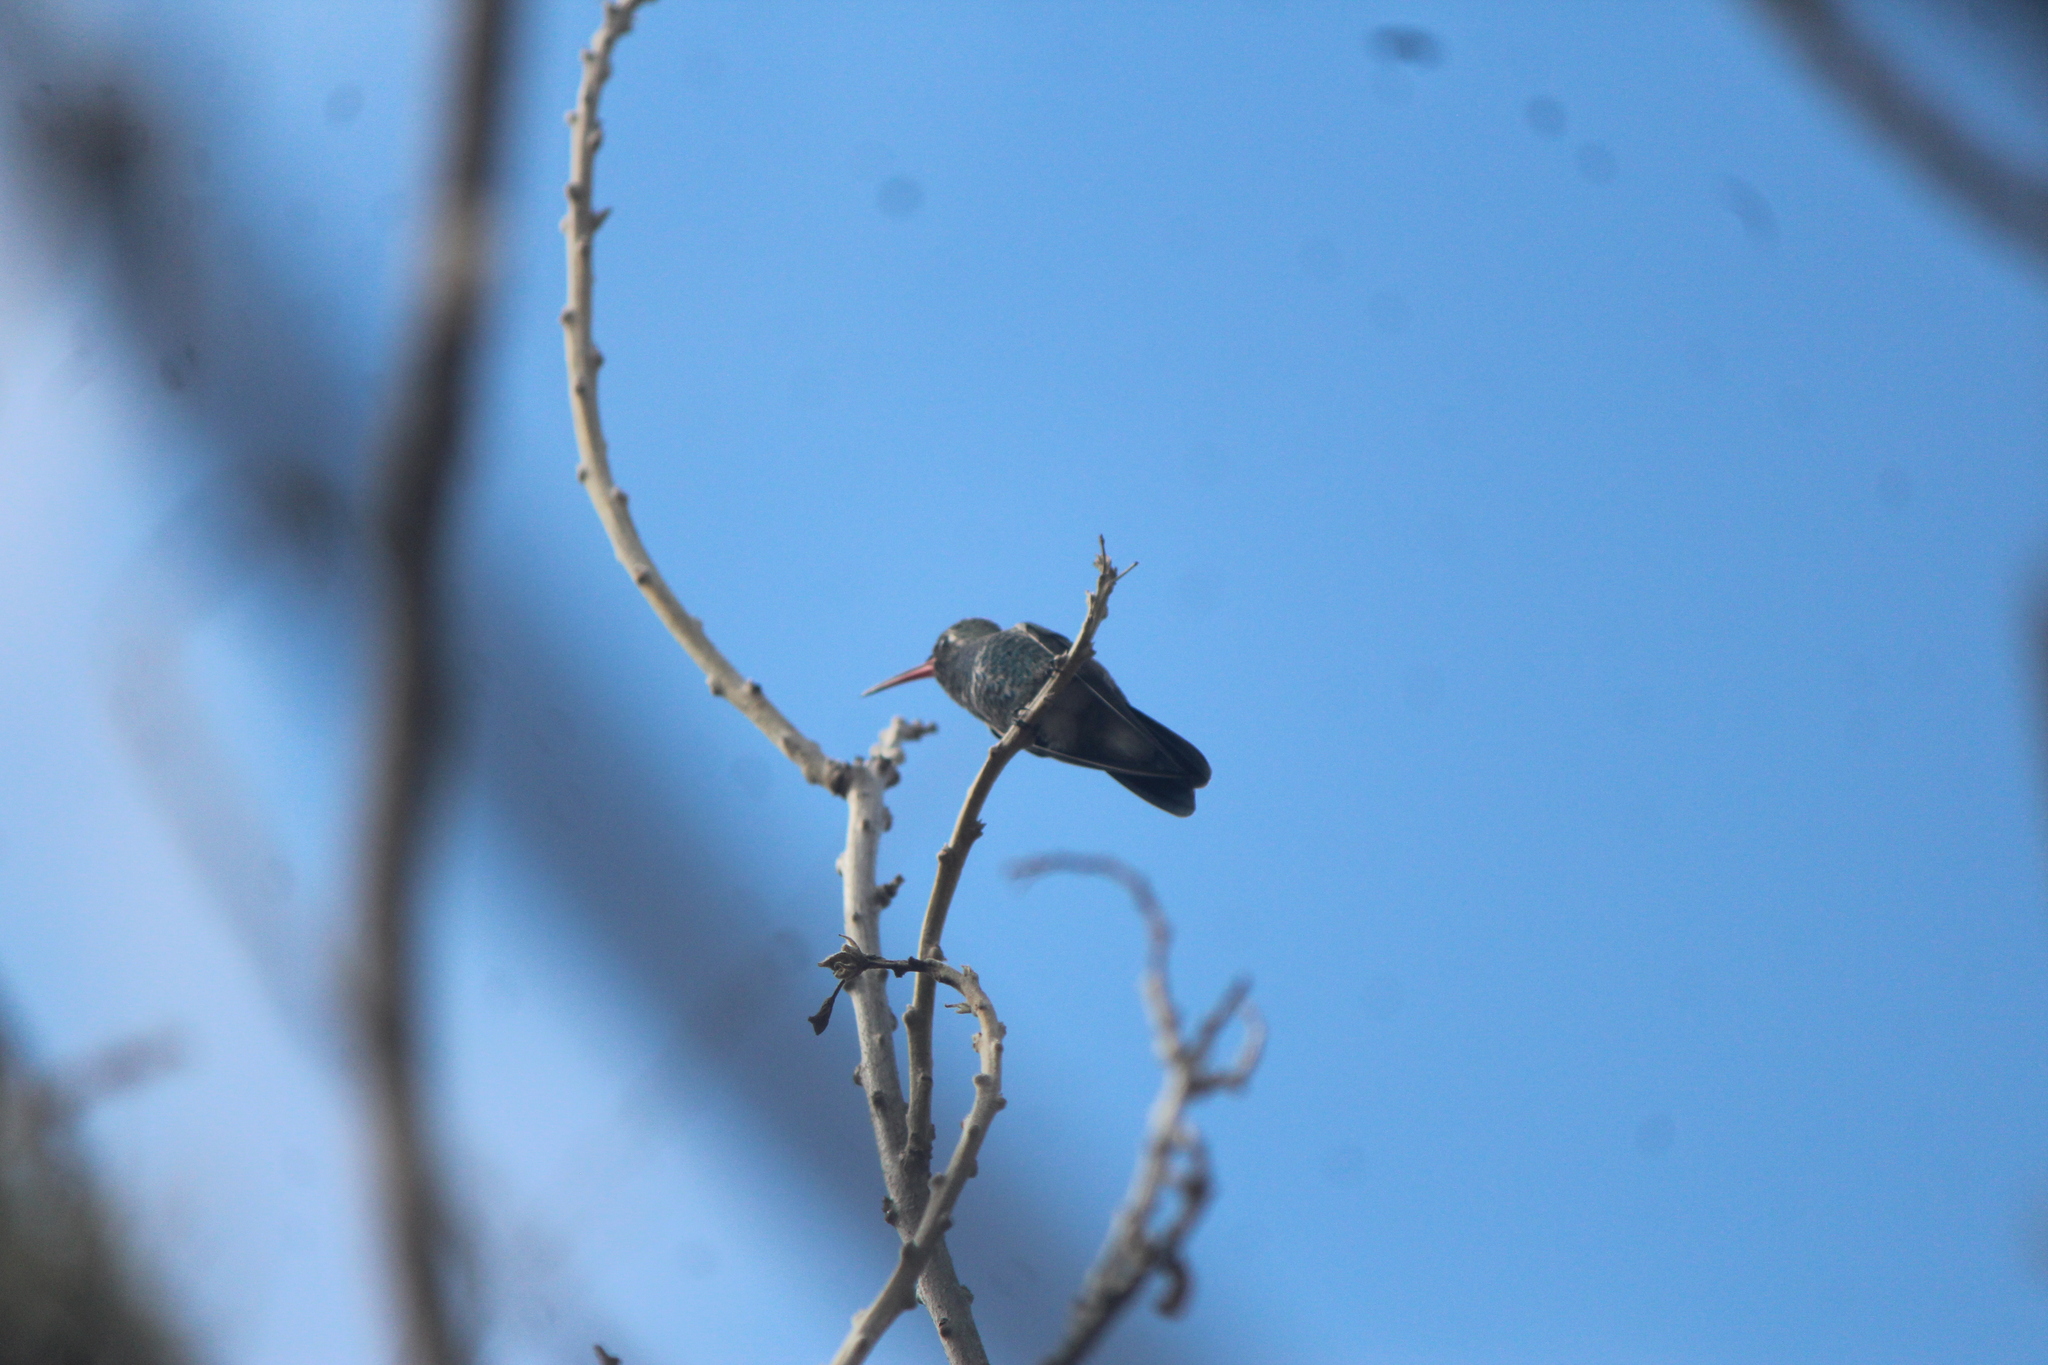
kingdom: Animalia
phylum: Chordata
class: Aves
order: Apodiformes
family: Trochilidae
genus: Cynanthus
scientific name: Cynanthus latirostris
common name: Broad-billed hummingbird
